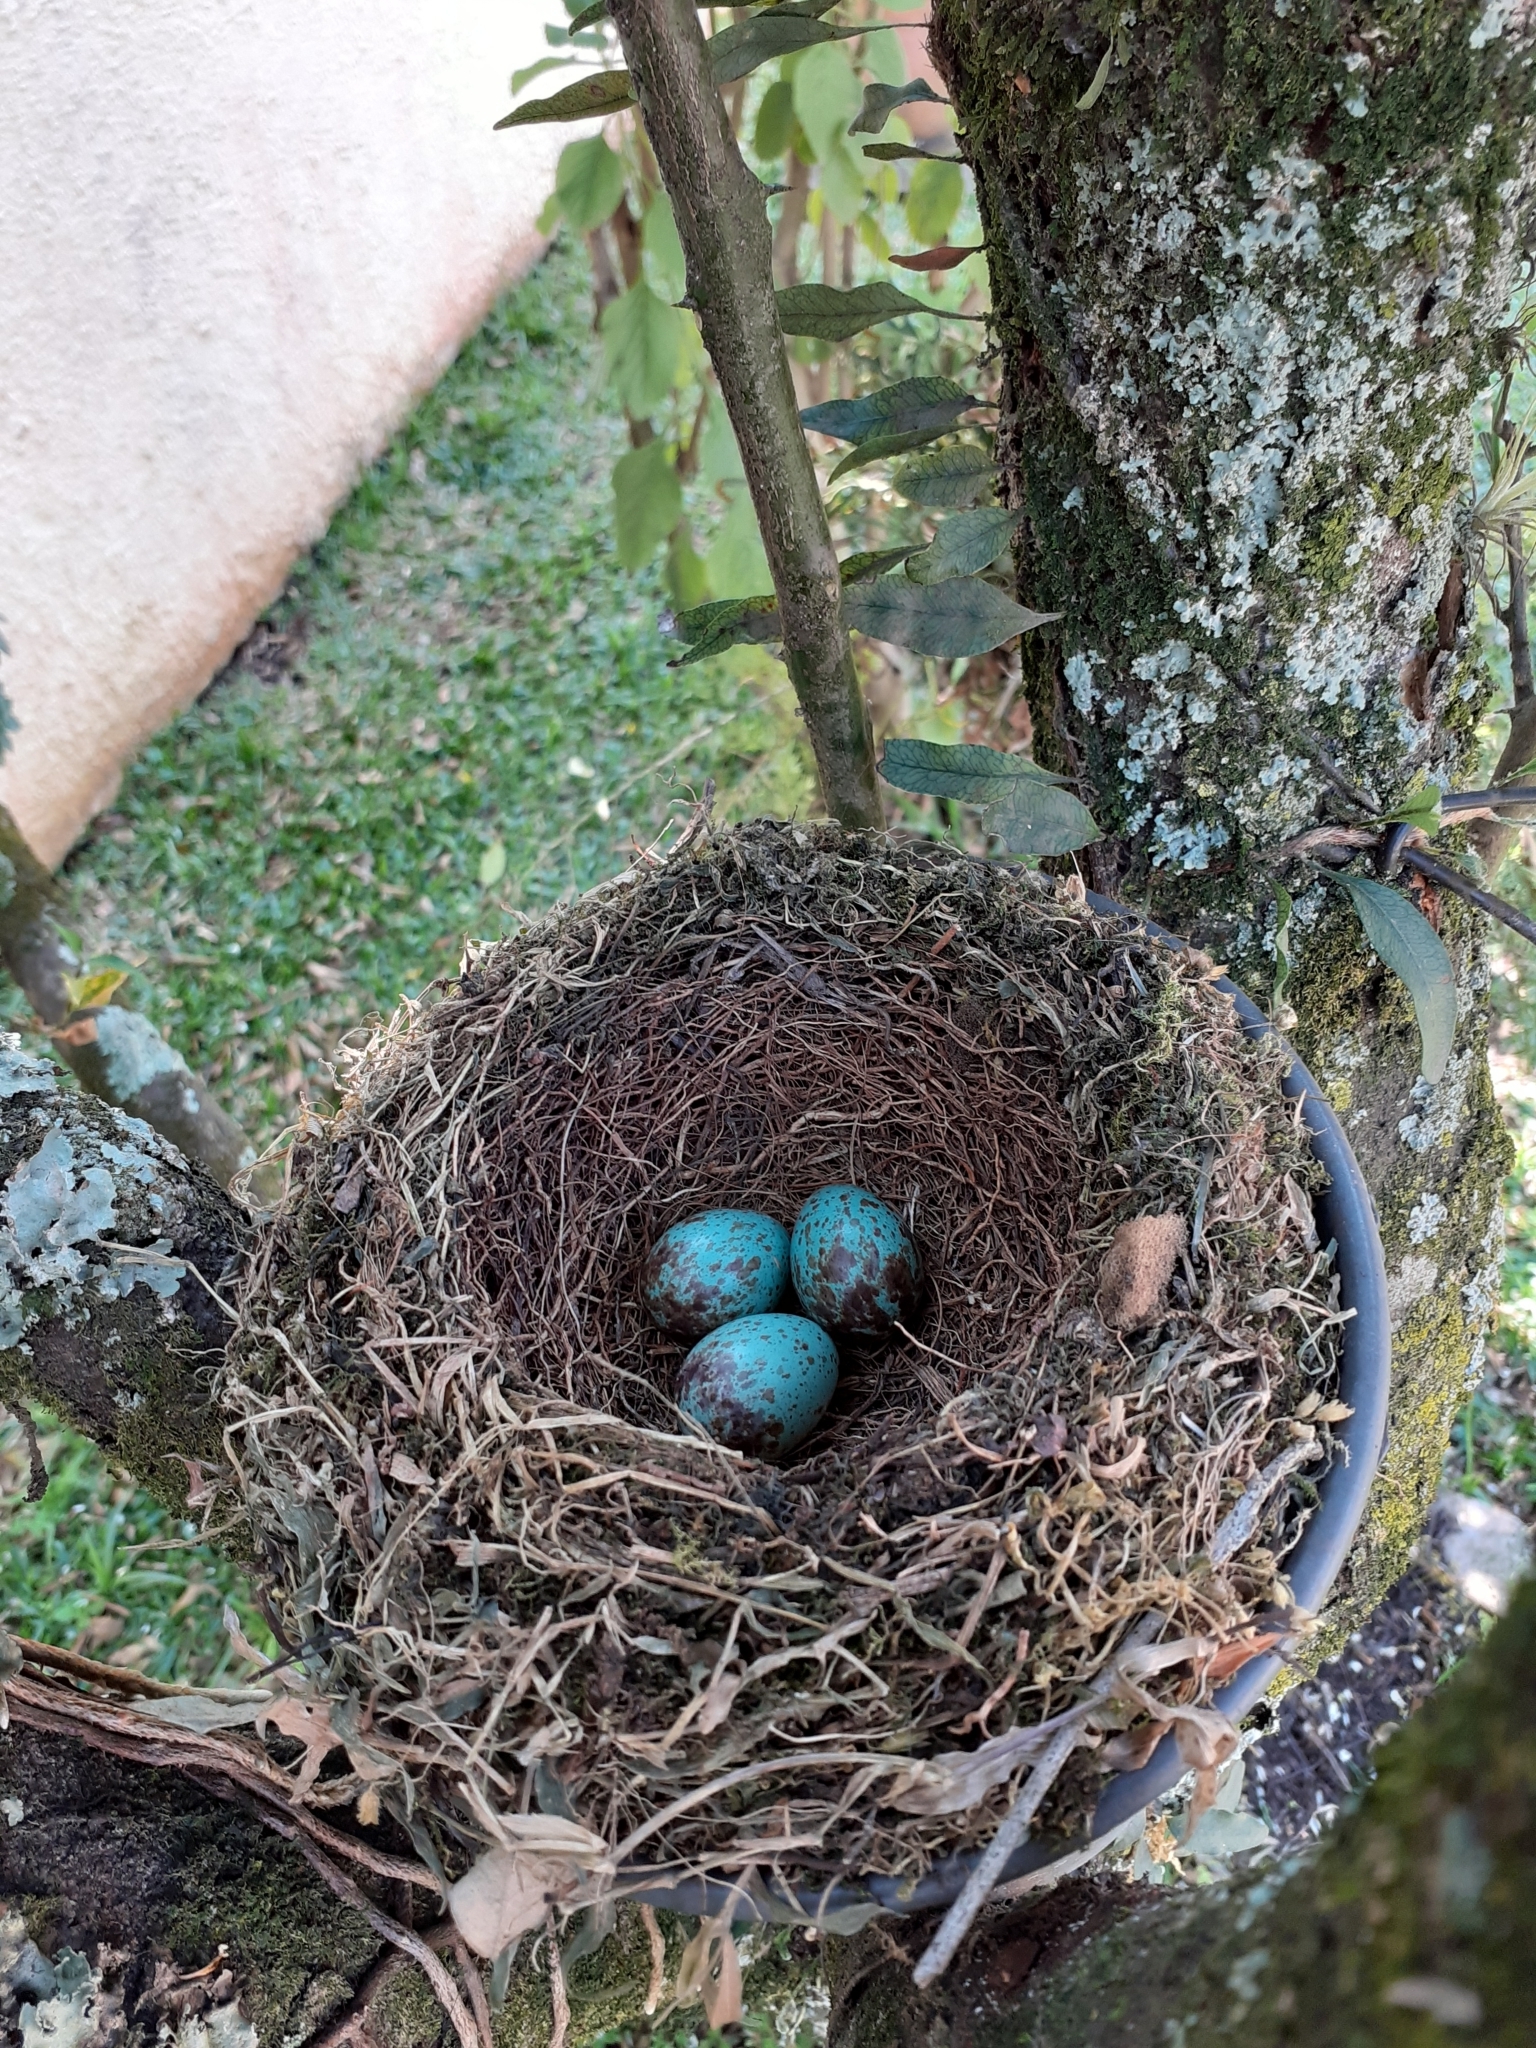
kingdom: Animalia
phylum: Chordata
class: Aves
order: Passeriformes
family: Turdidae
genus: Turdus
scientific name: Turdus rufiventris
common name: Rufous-bellied thrush
